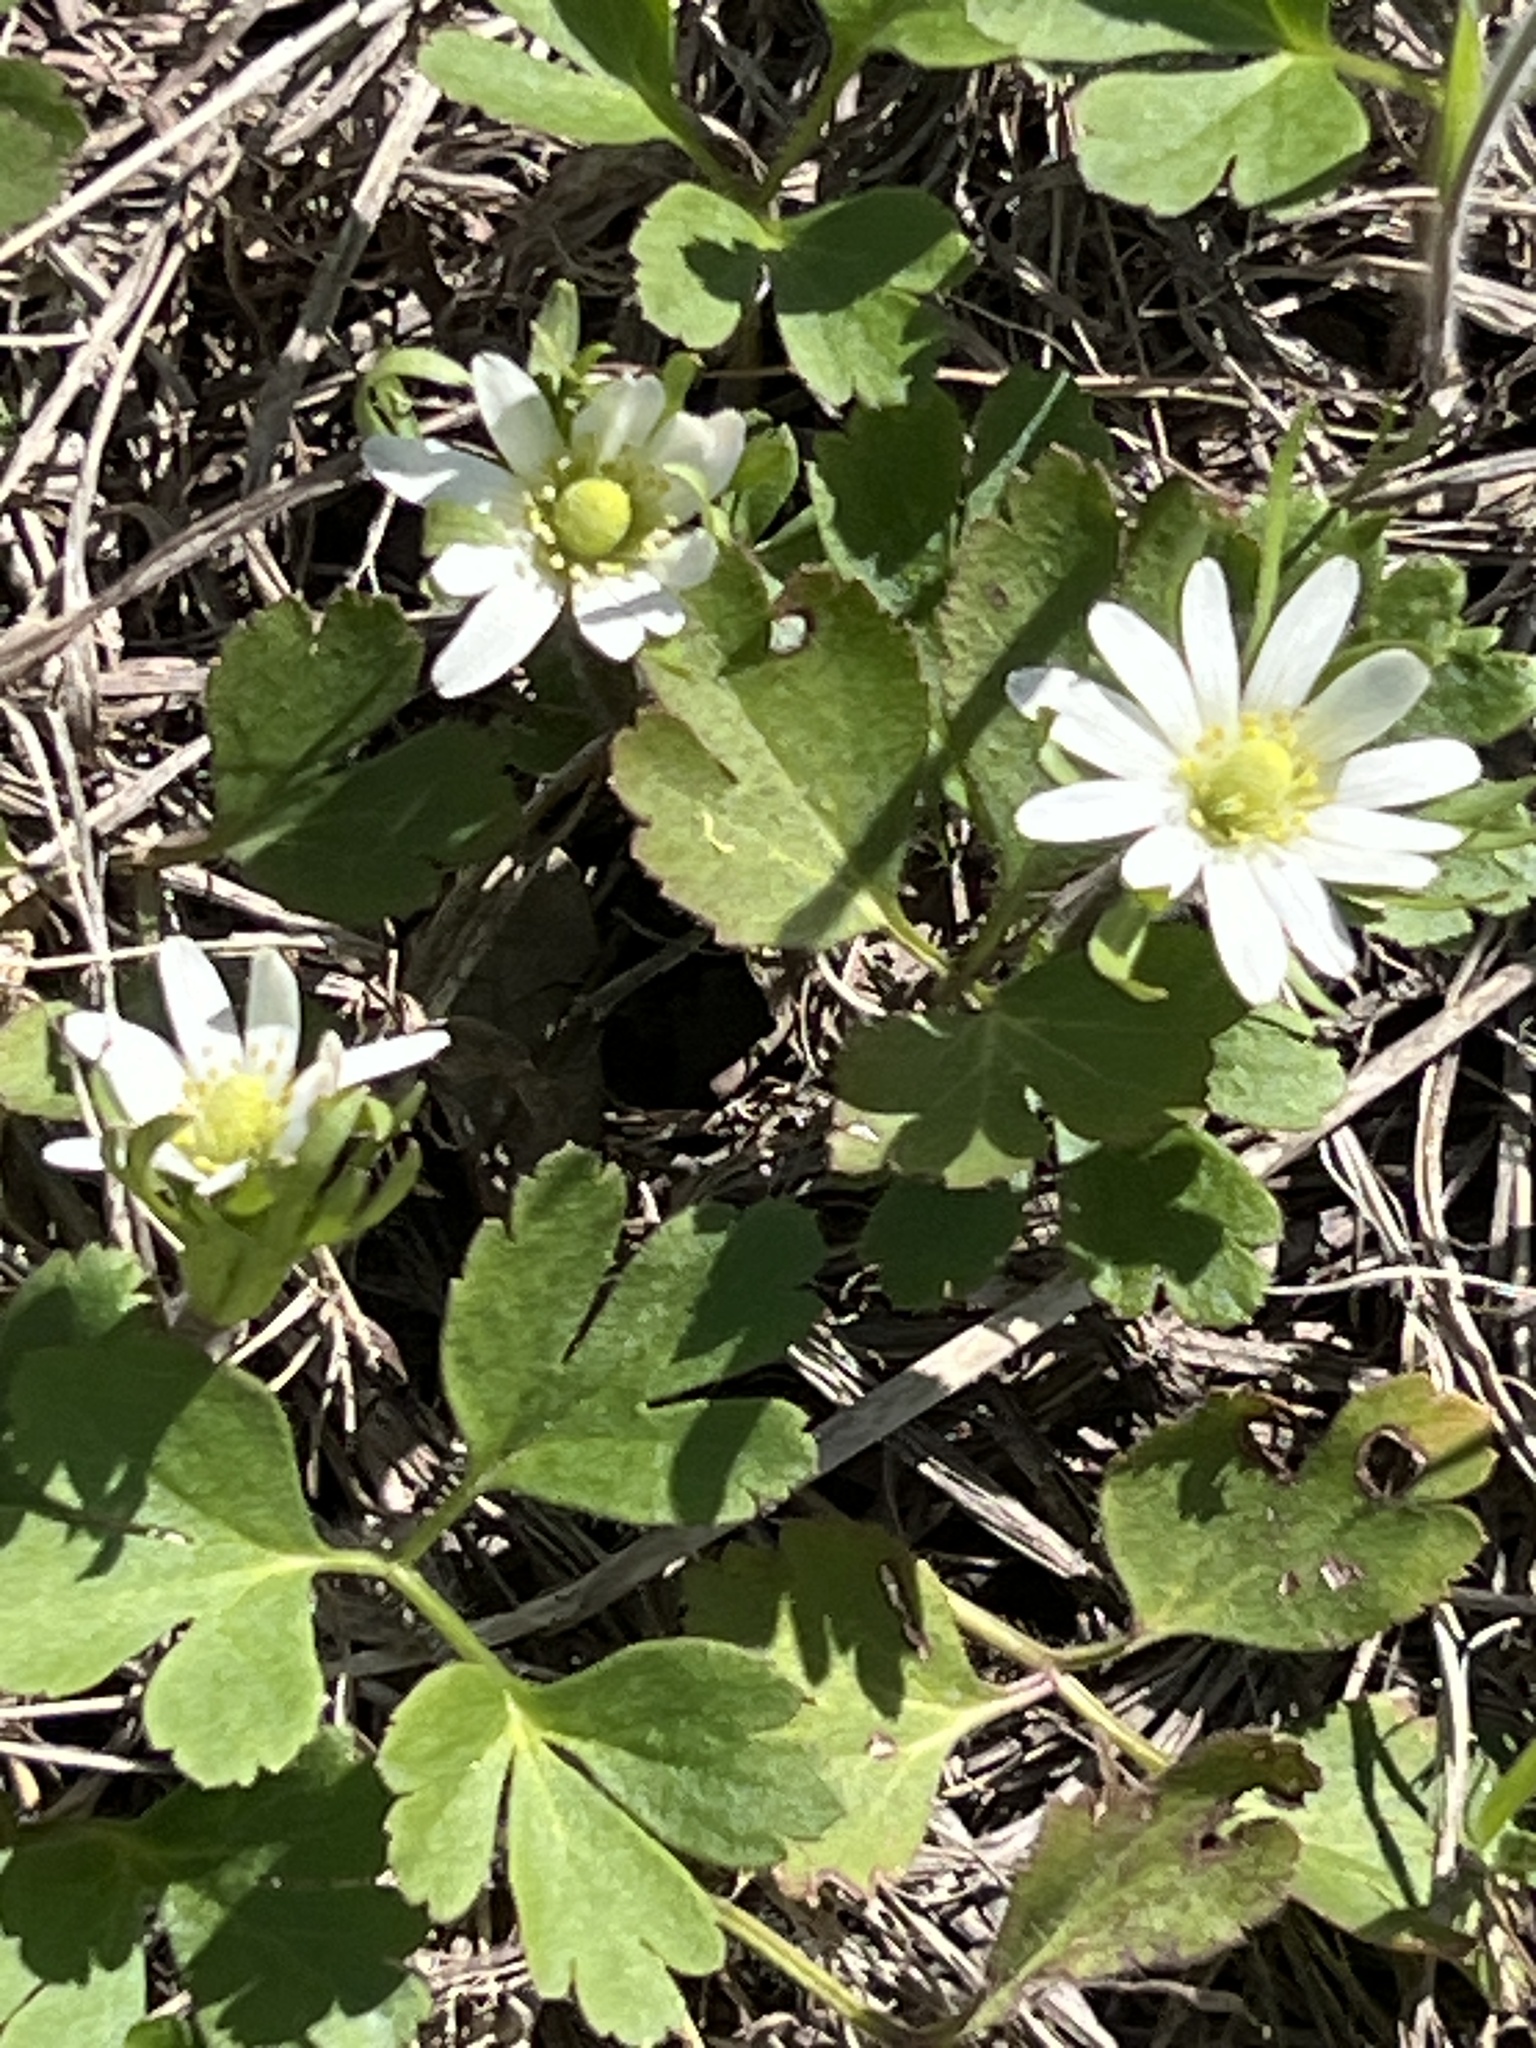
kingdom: Plantae
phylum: Tracheophyta
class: Magnoliopsida
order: Ranunculales
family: Ranunculaceae
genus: Anemone
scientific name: Anemone berlandieri
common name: Ten-petal anemone
